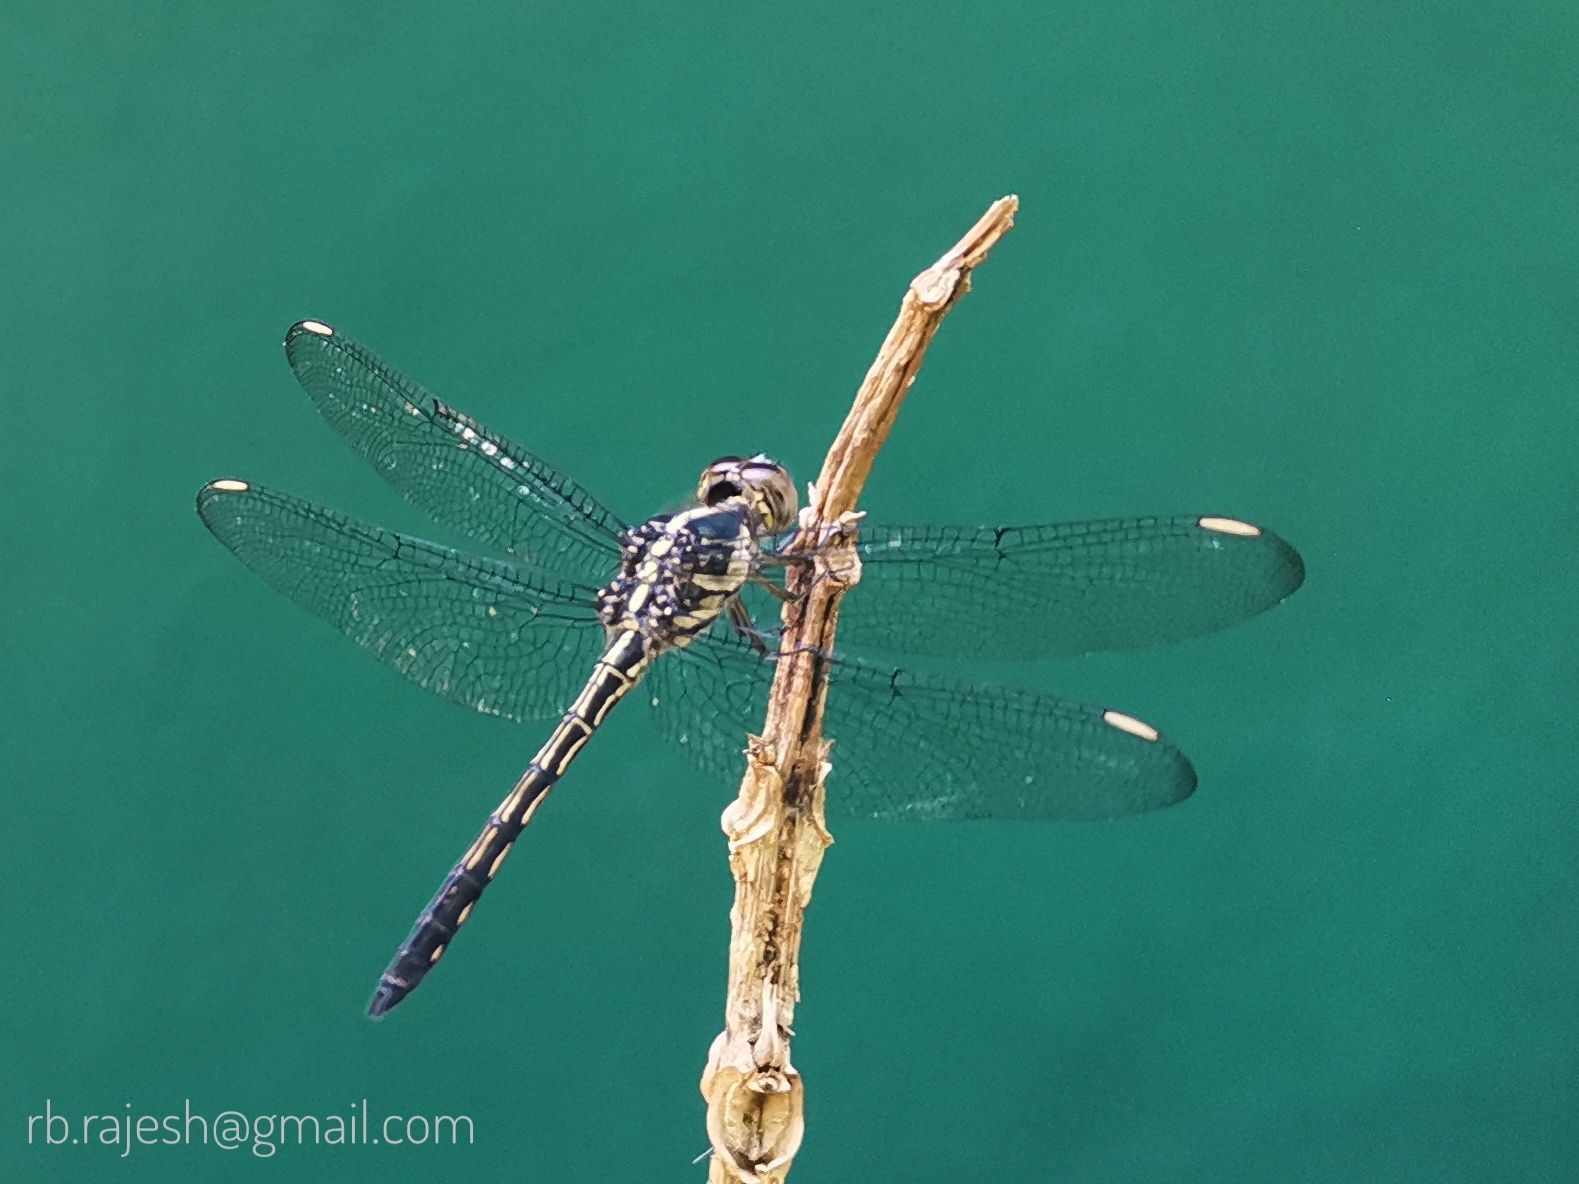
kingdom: Animalia
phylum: Arthropoda
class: Insecta
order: Odonata
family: Libellulidae
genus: Cratilla
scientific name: Cratilla lineata
